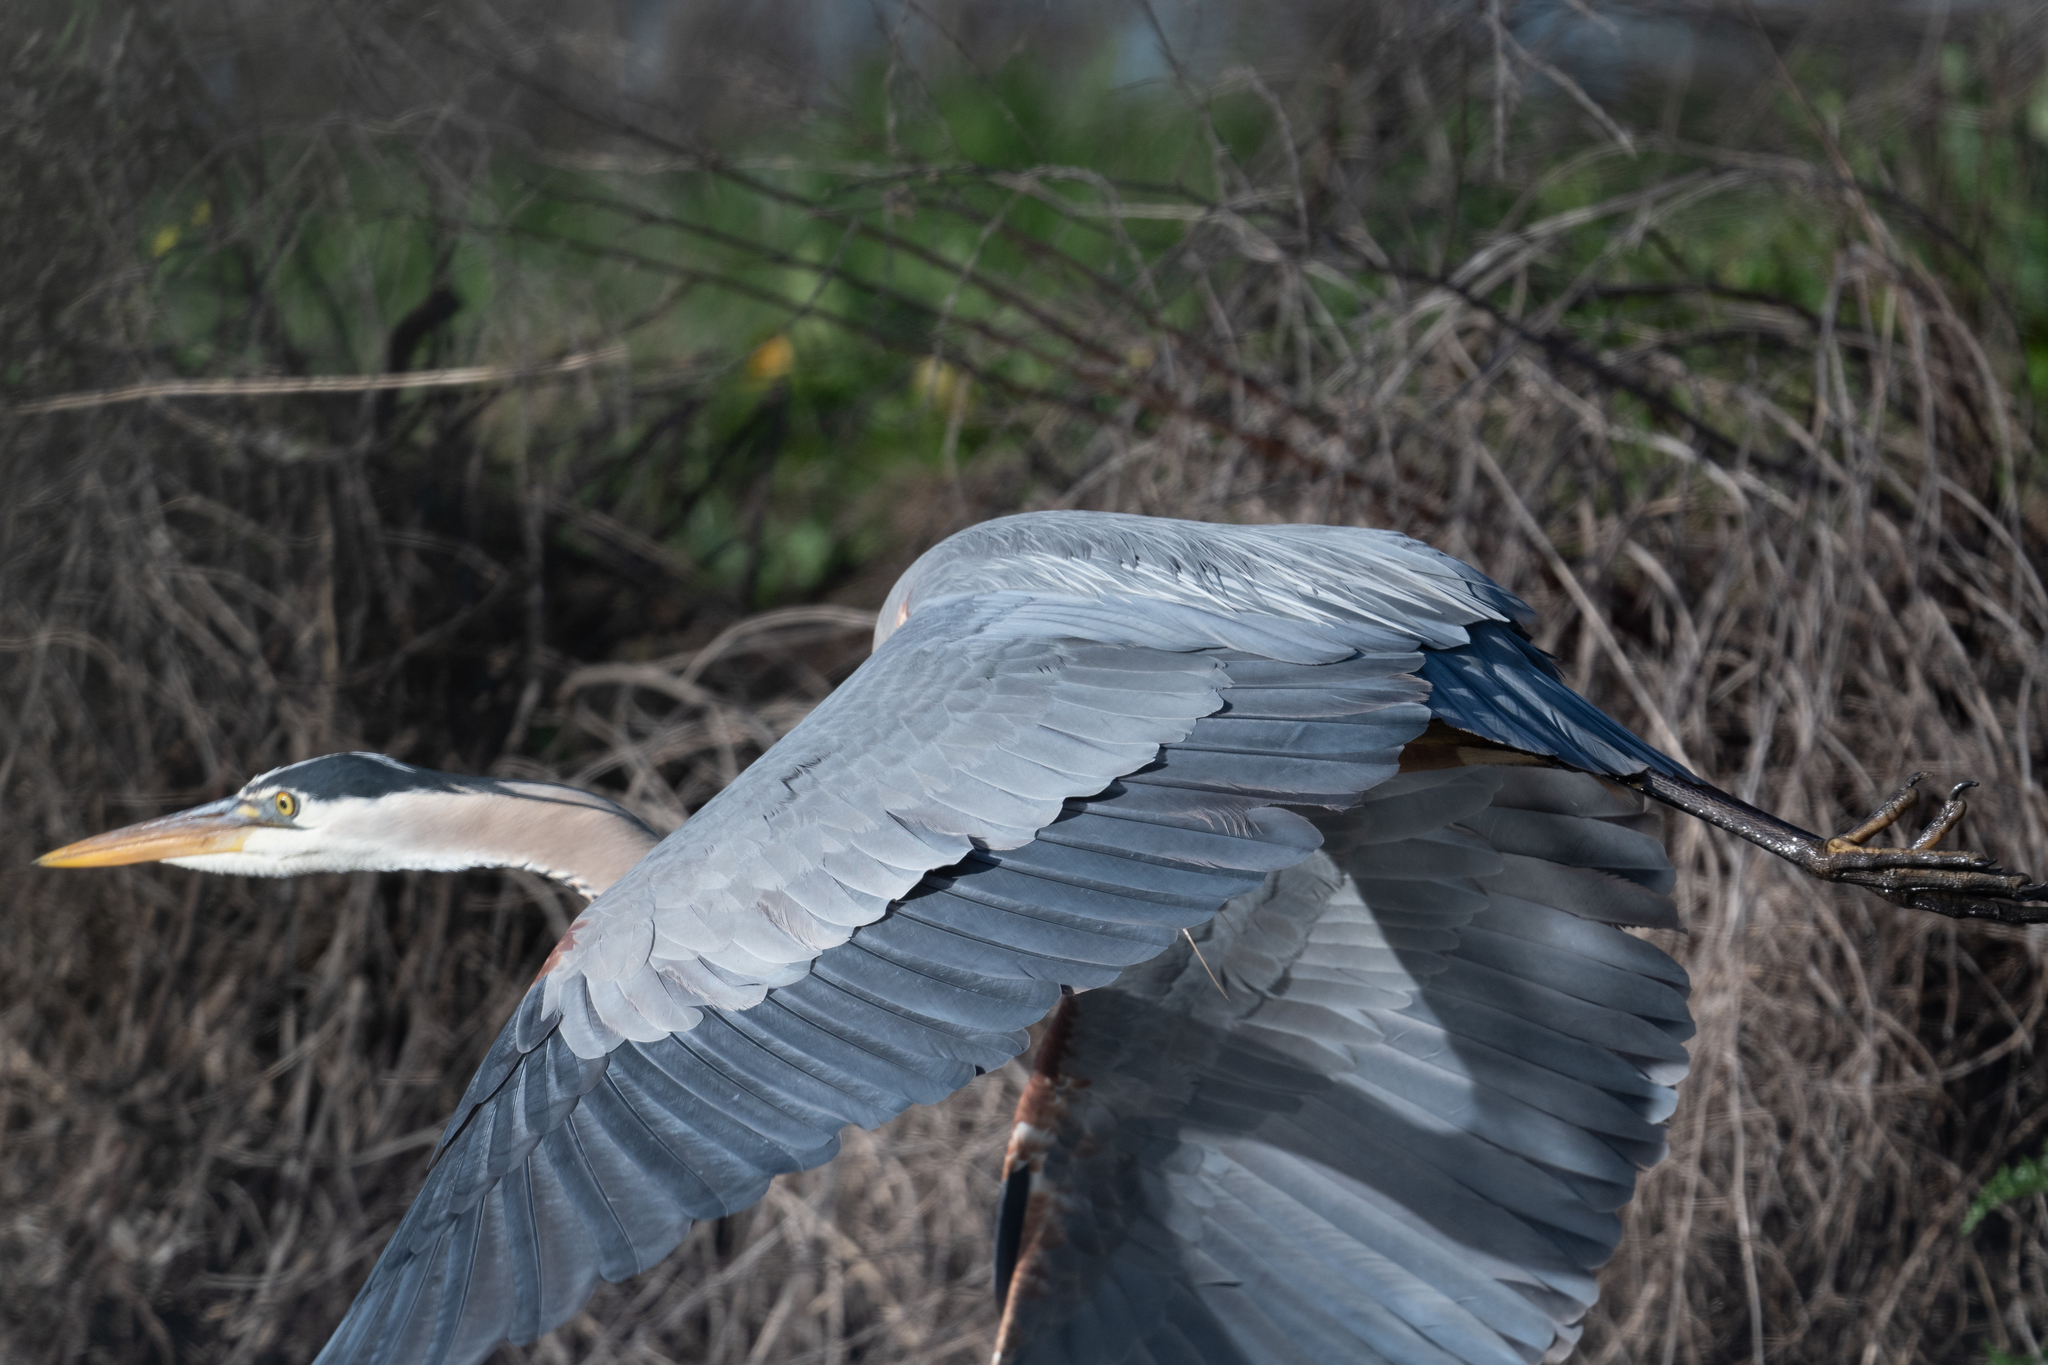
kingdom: Animalia
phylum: Chordata
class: Aves
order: Pelecaniformes
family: Ardeidae
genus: Ardea
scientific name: Ardea herodias
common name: Great blue heron
